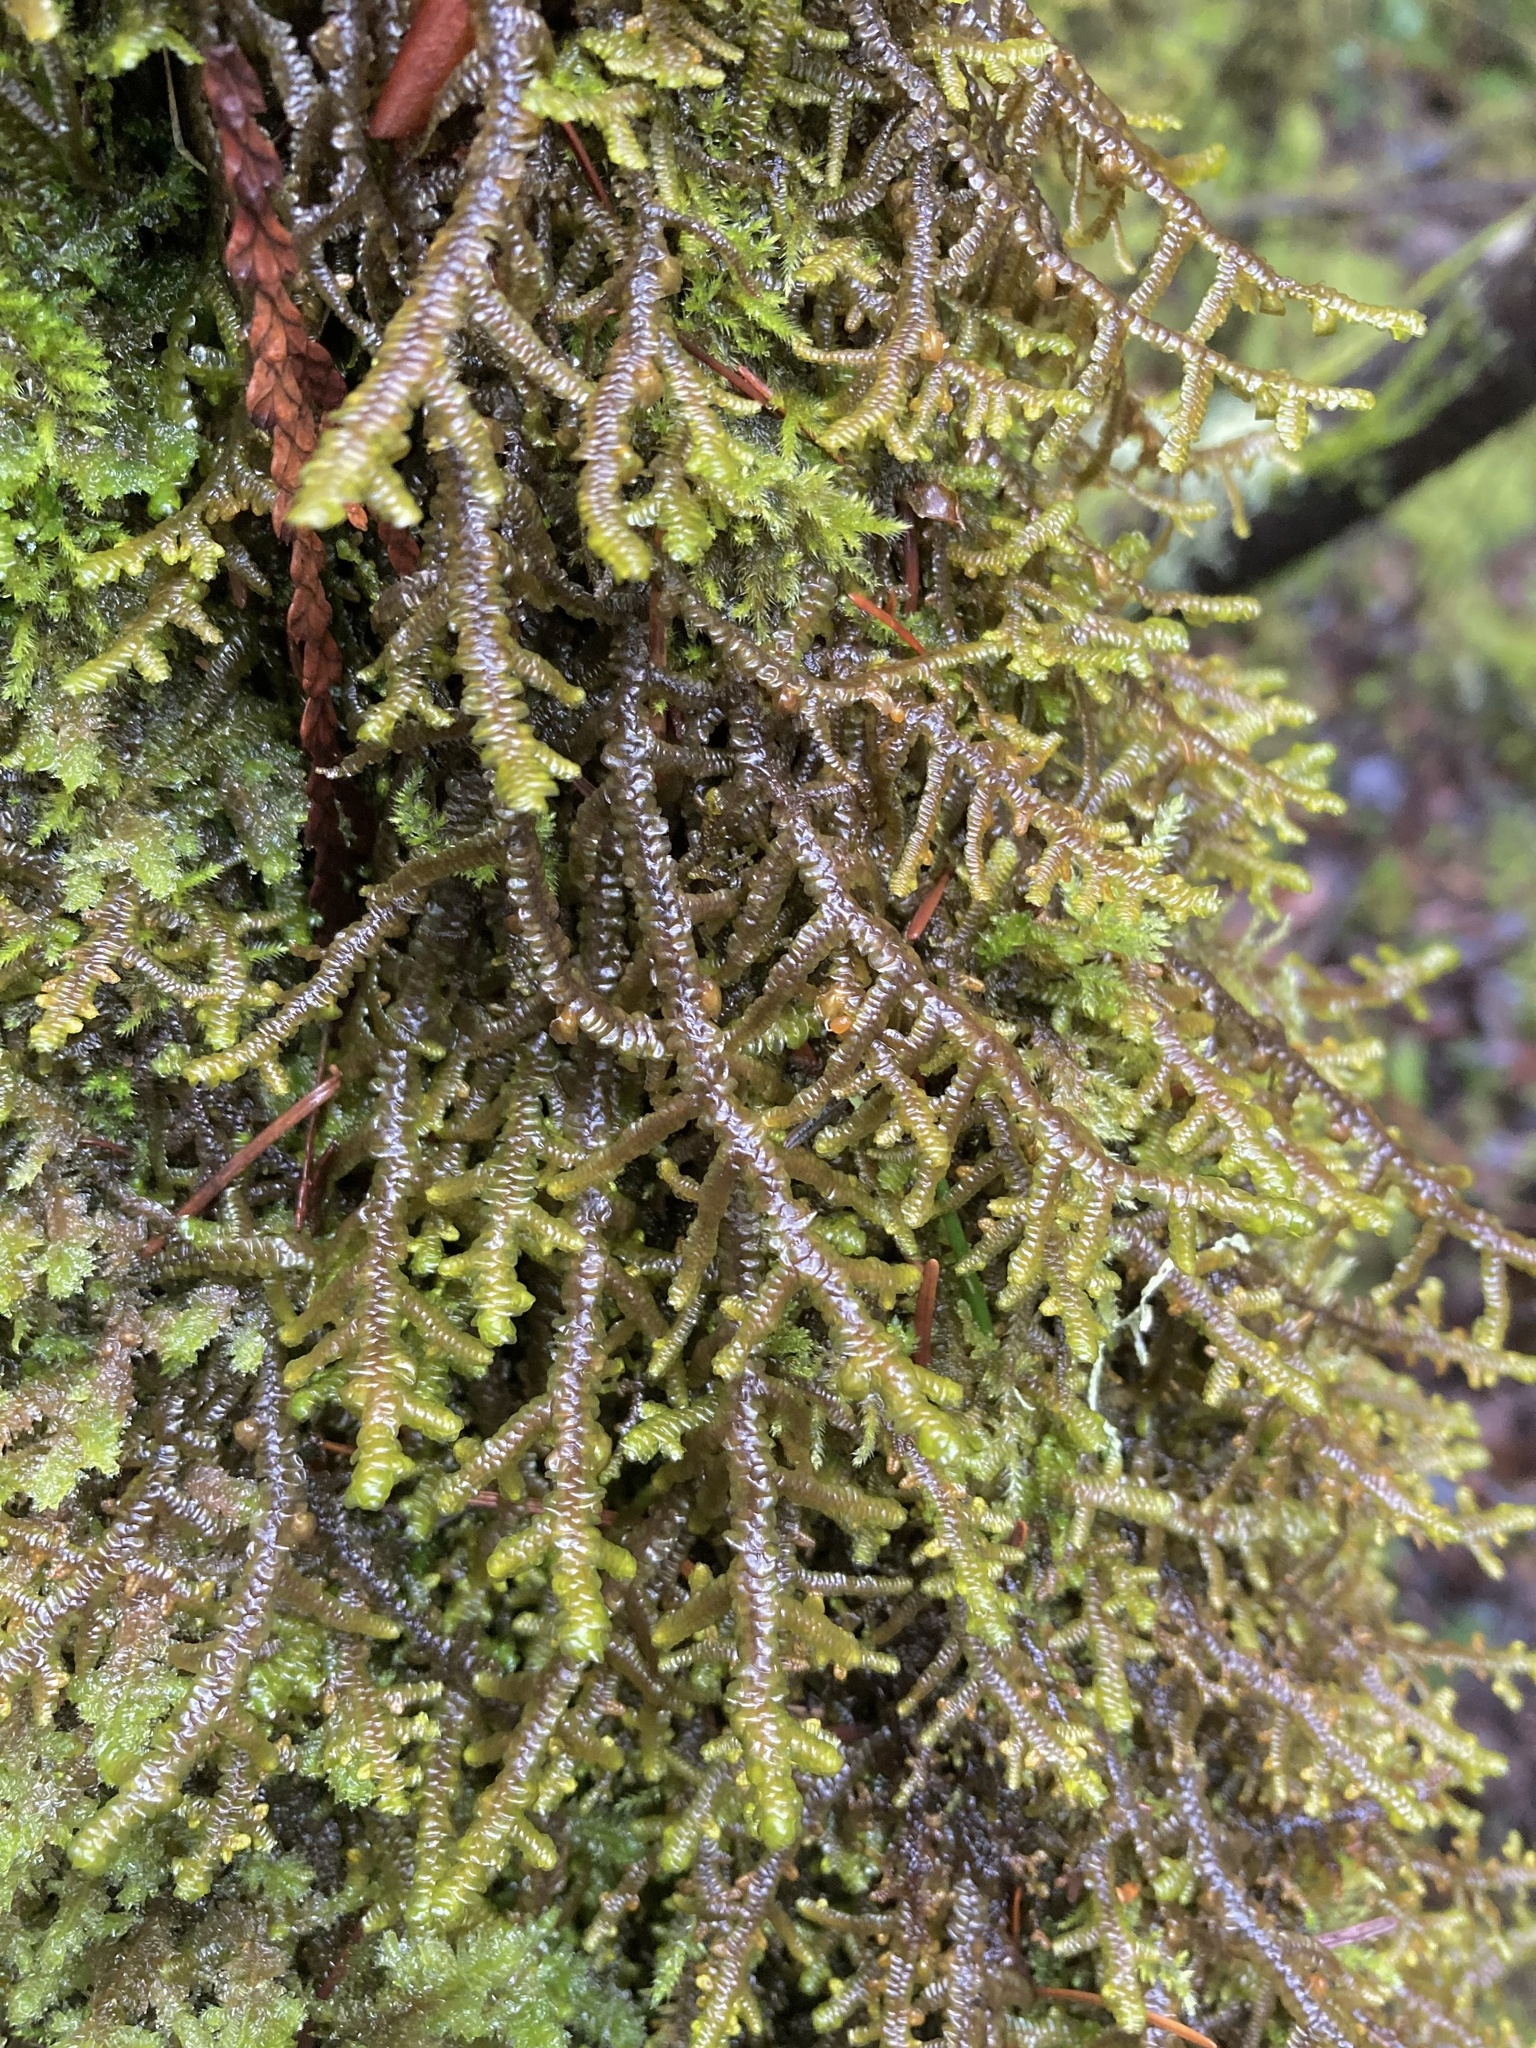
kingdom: Plantae
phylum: Marchantiophyta
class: Jungermanniopsida
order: Porellales
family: Porellaceae
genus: Porella
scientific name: Porella navicularis
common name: Tree ruffle liverwort
